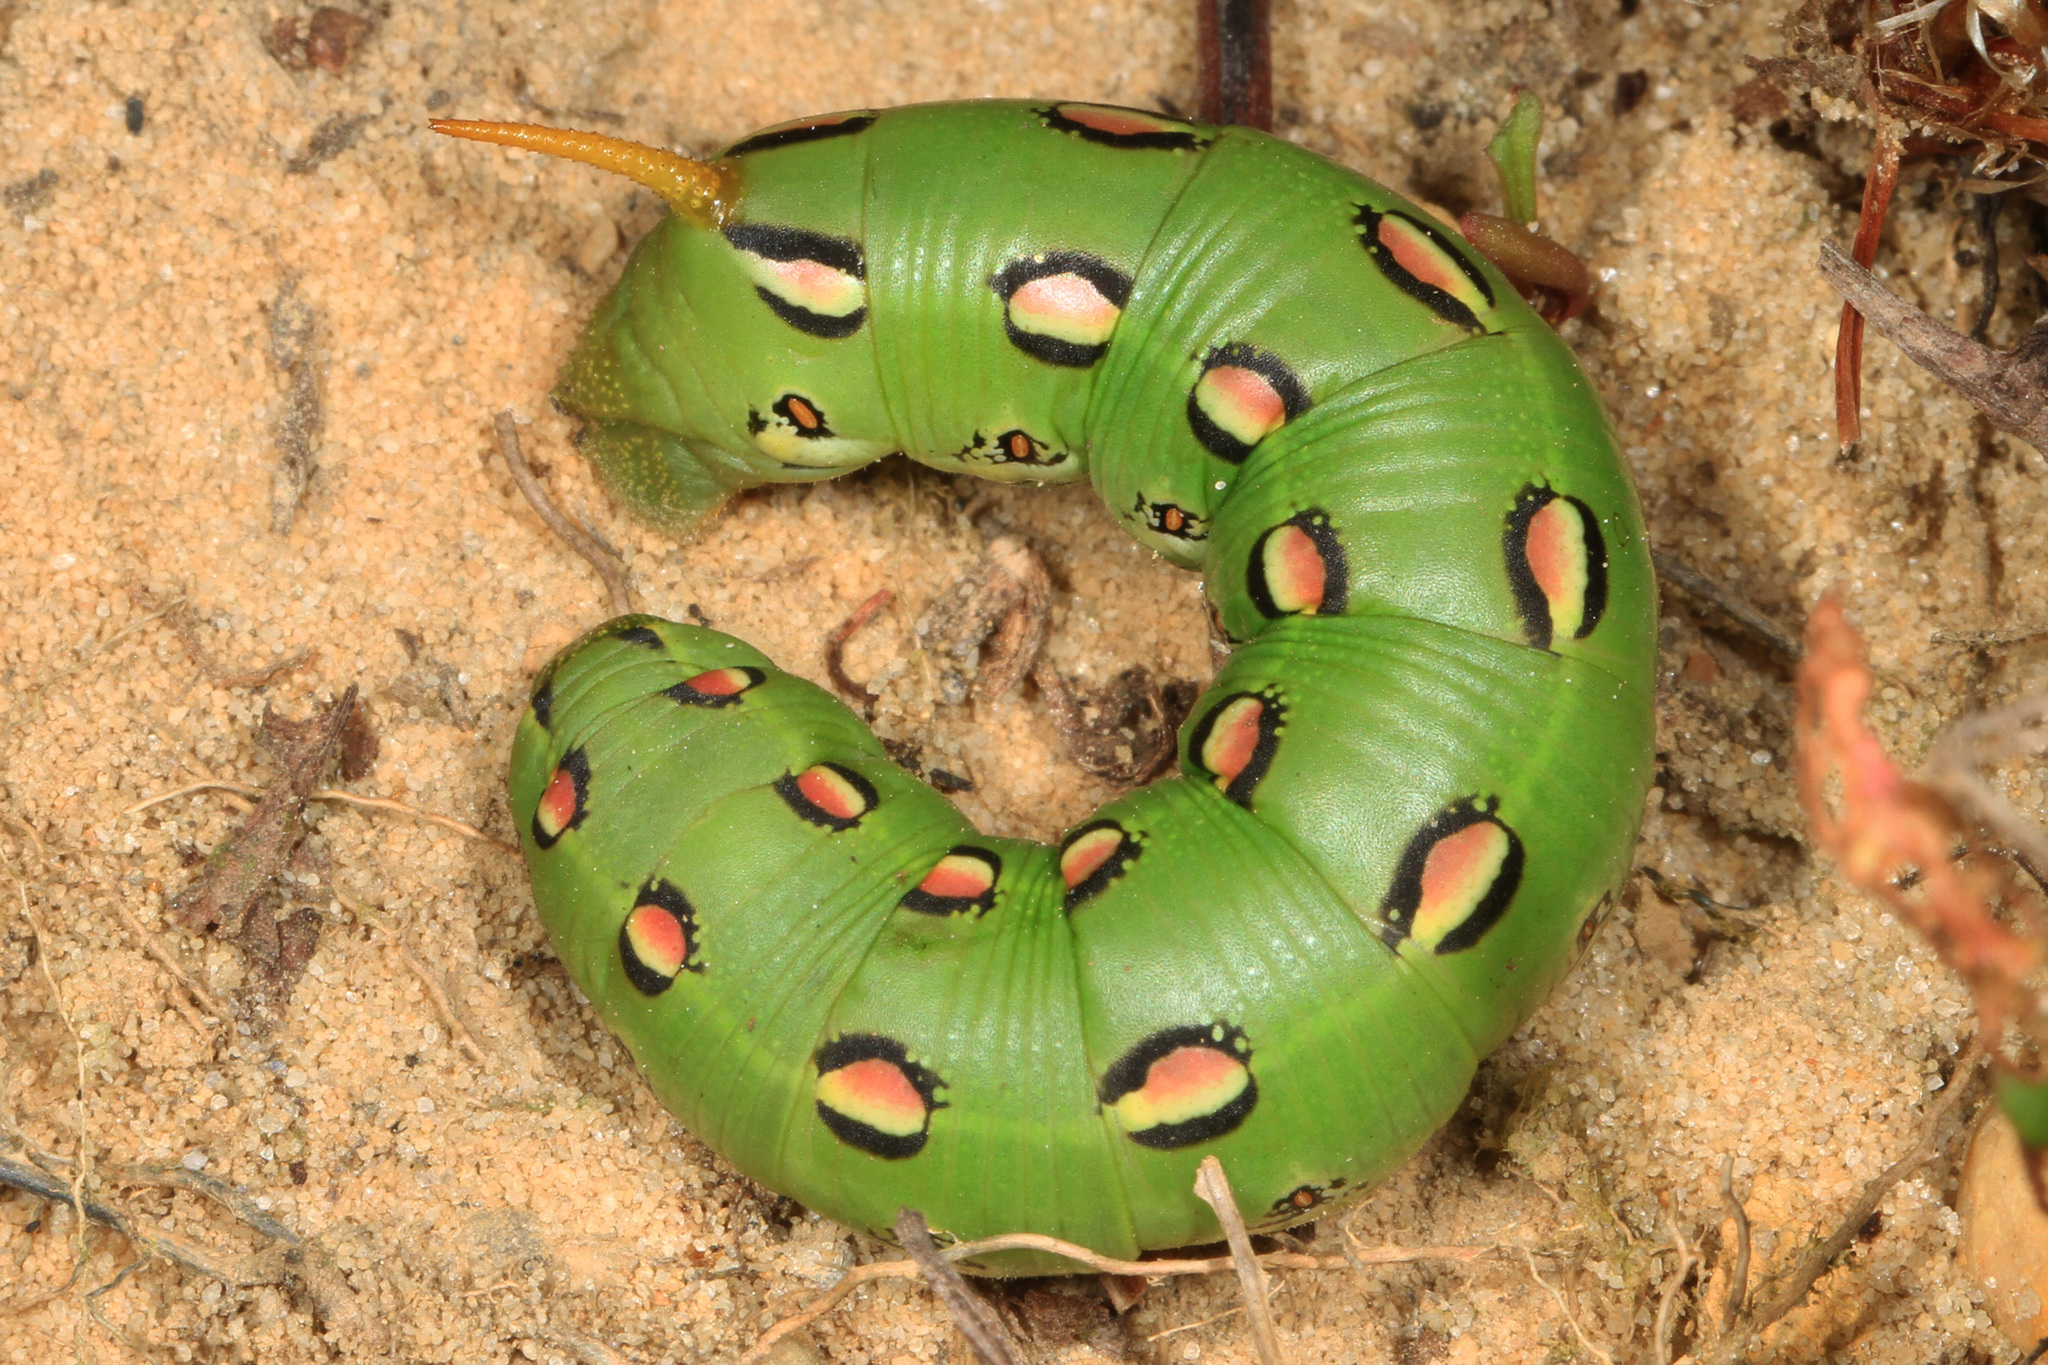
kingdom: Animalia
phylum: Arthropoda
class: Insecta
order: Lepidoptera
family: Sphingidae
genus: Hyles
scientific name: Hyles lineata
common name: White-lined sphinx
